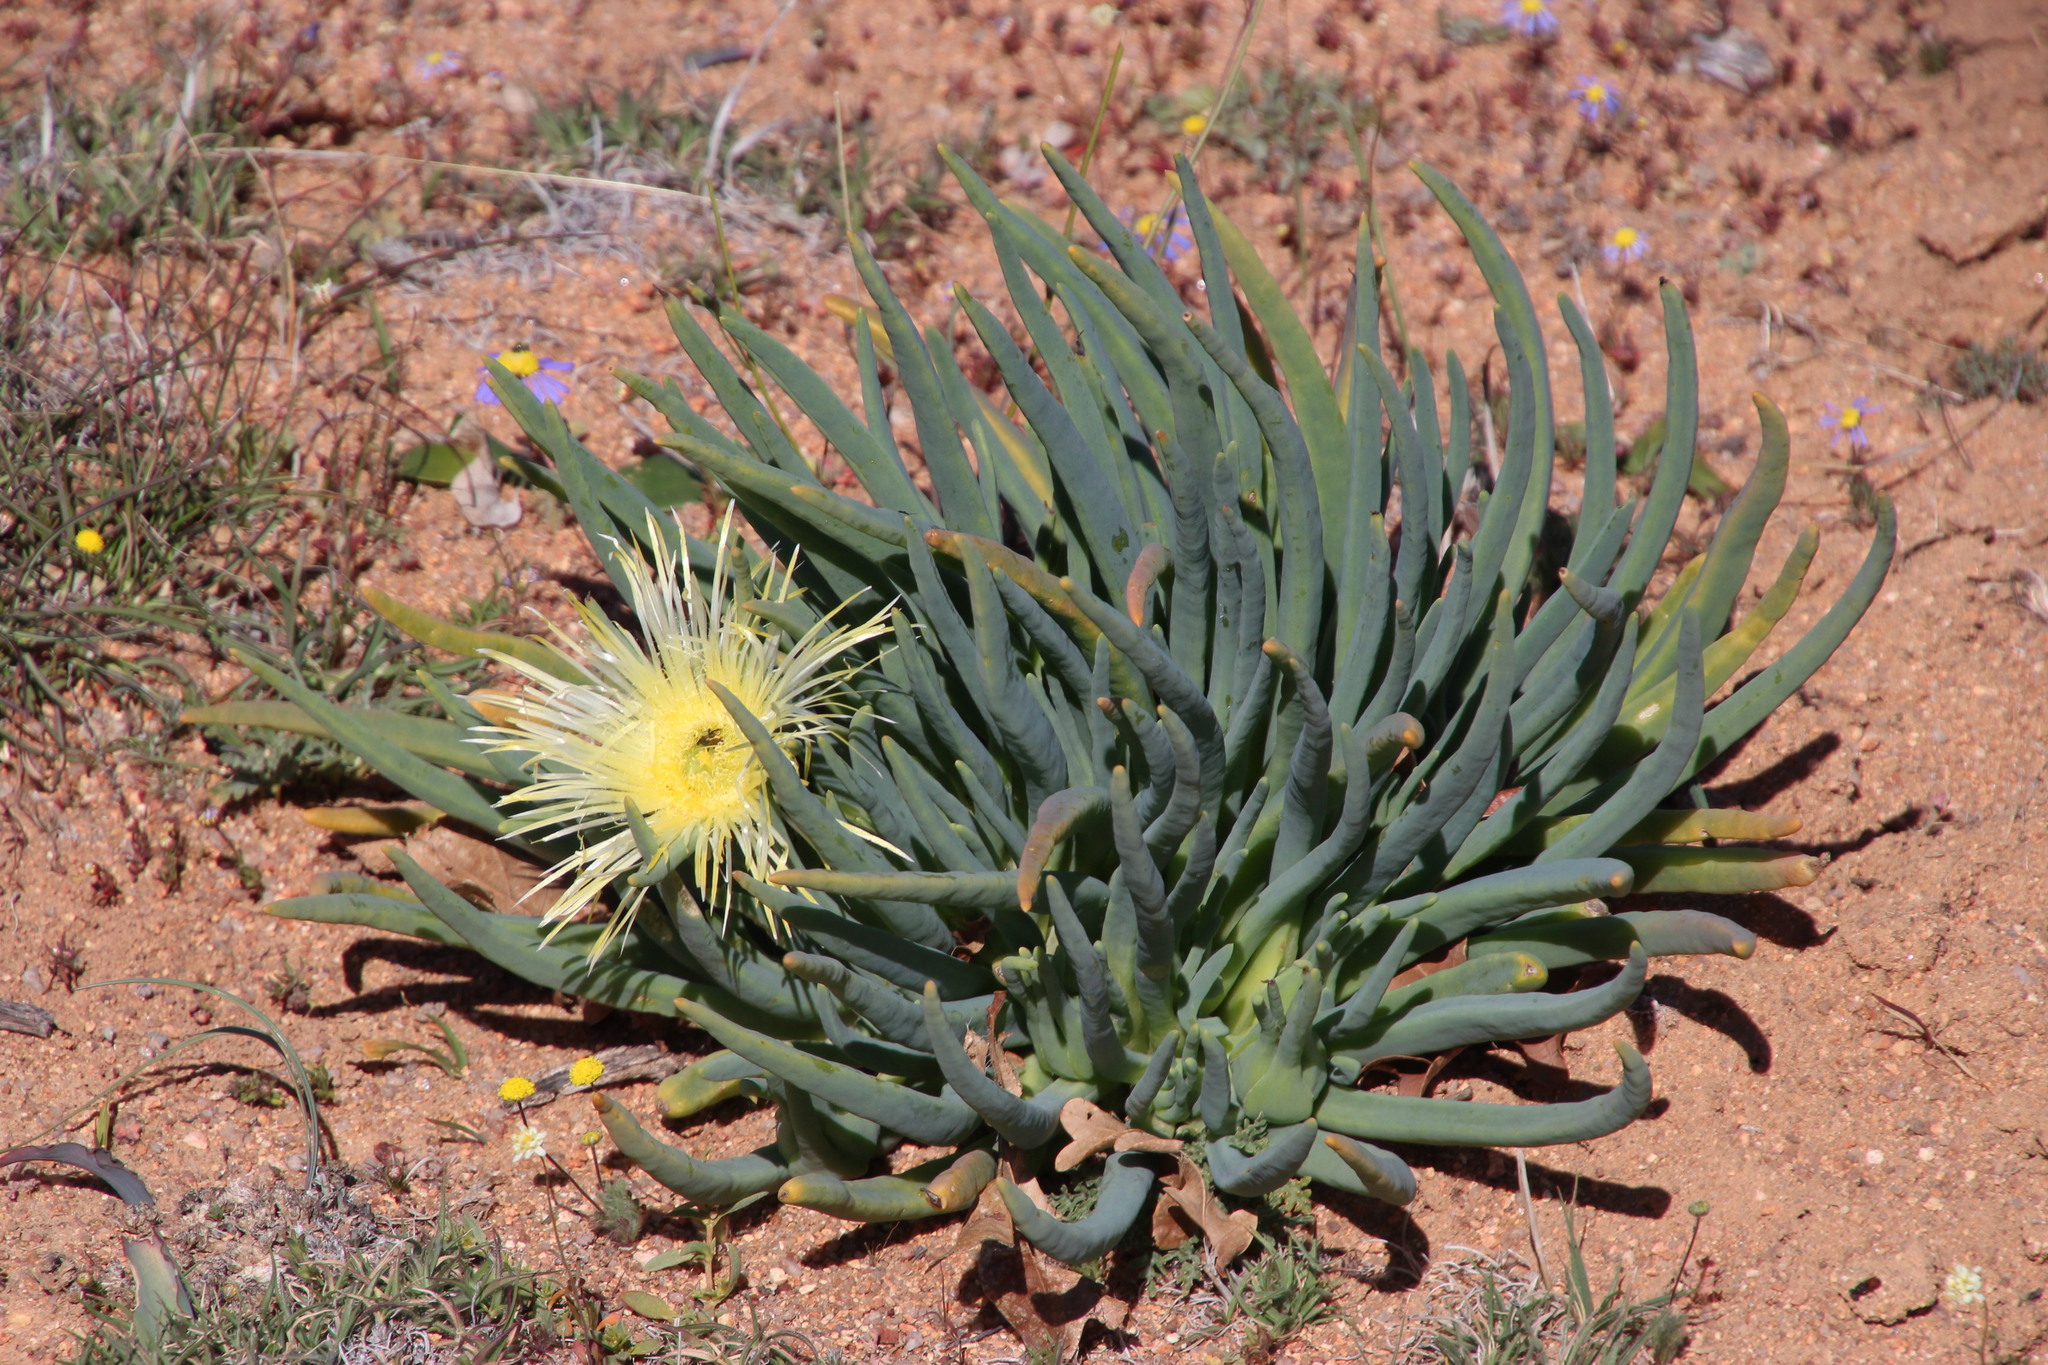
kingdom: Plantae
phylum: Tracheophyta
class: Magnoliopsida
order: Caryophyllales
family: Aizoaceae
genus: Conicosia
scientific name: Conicosia elongata
